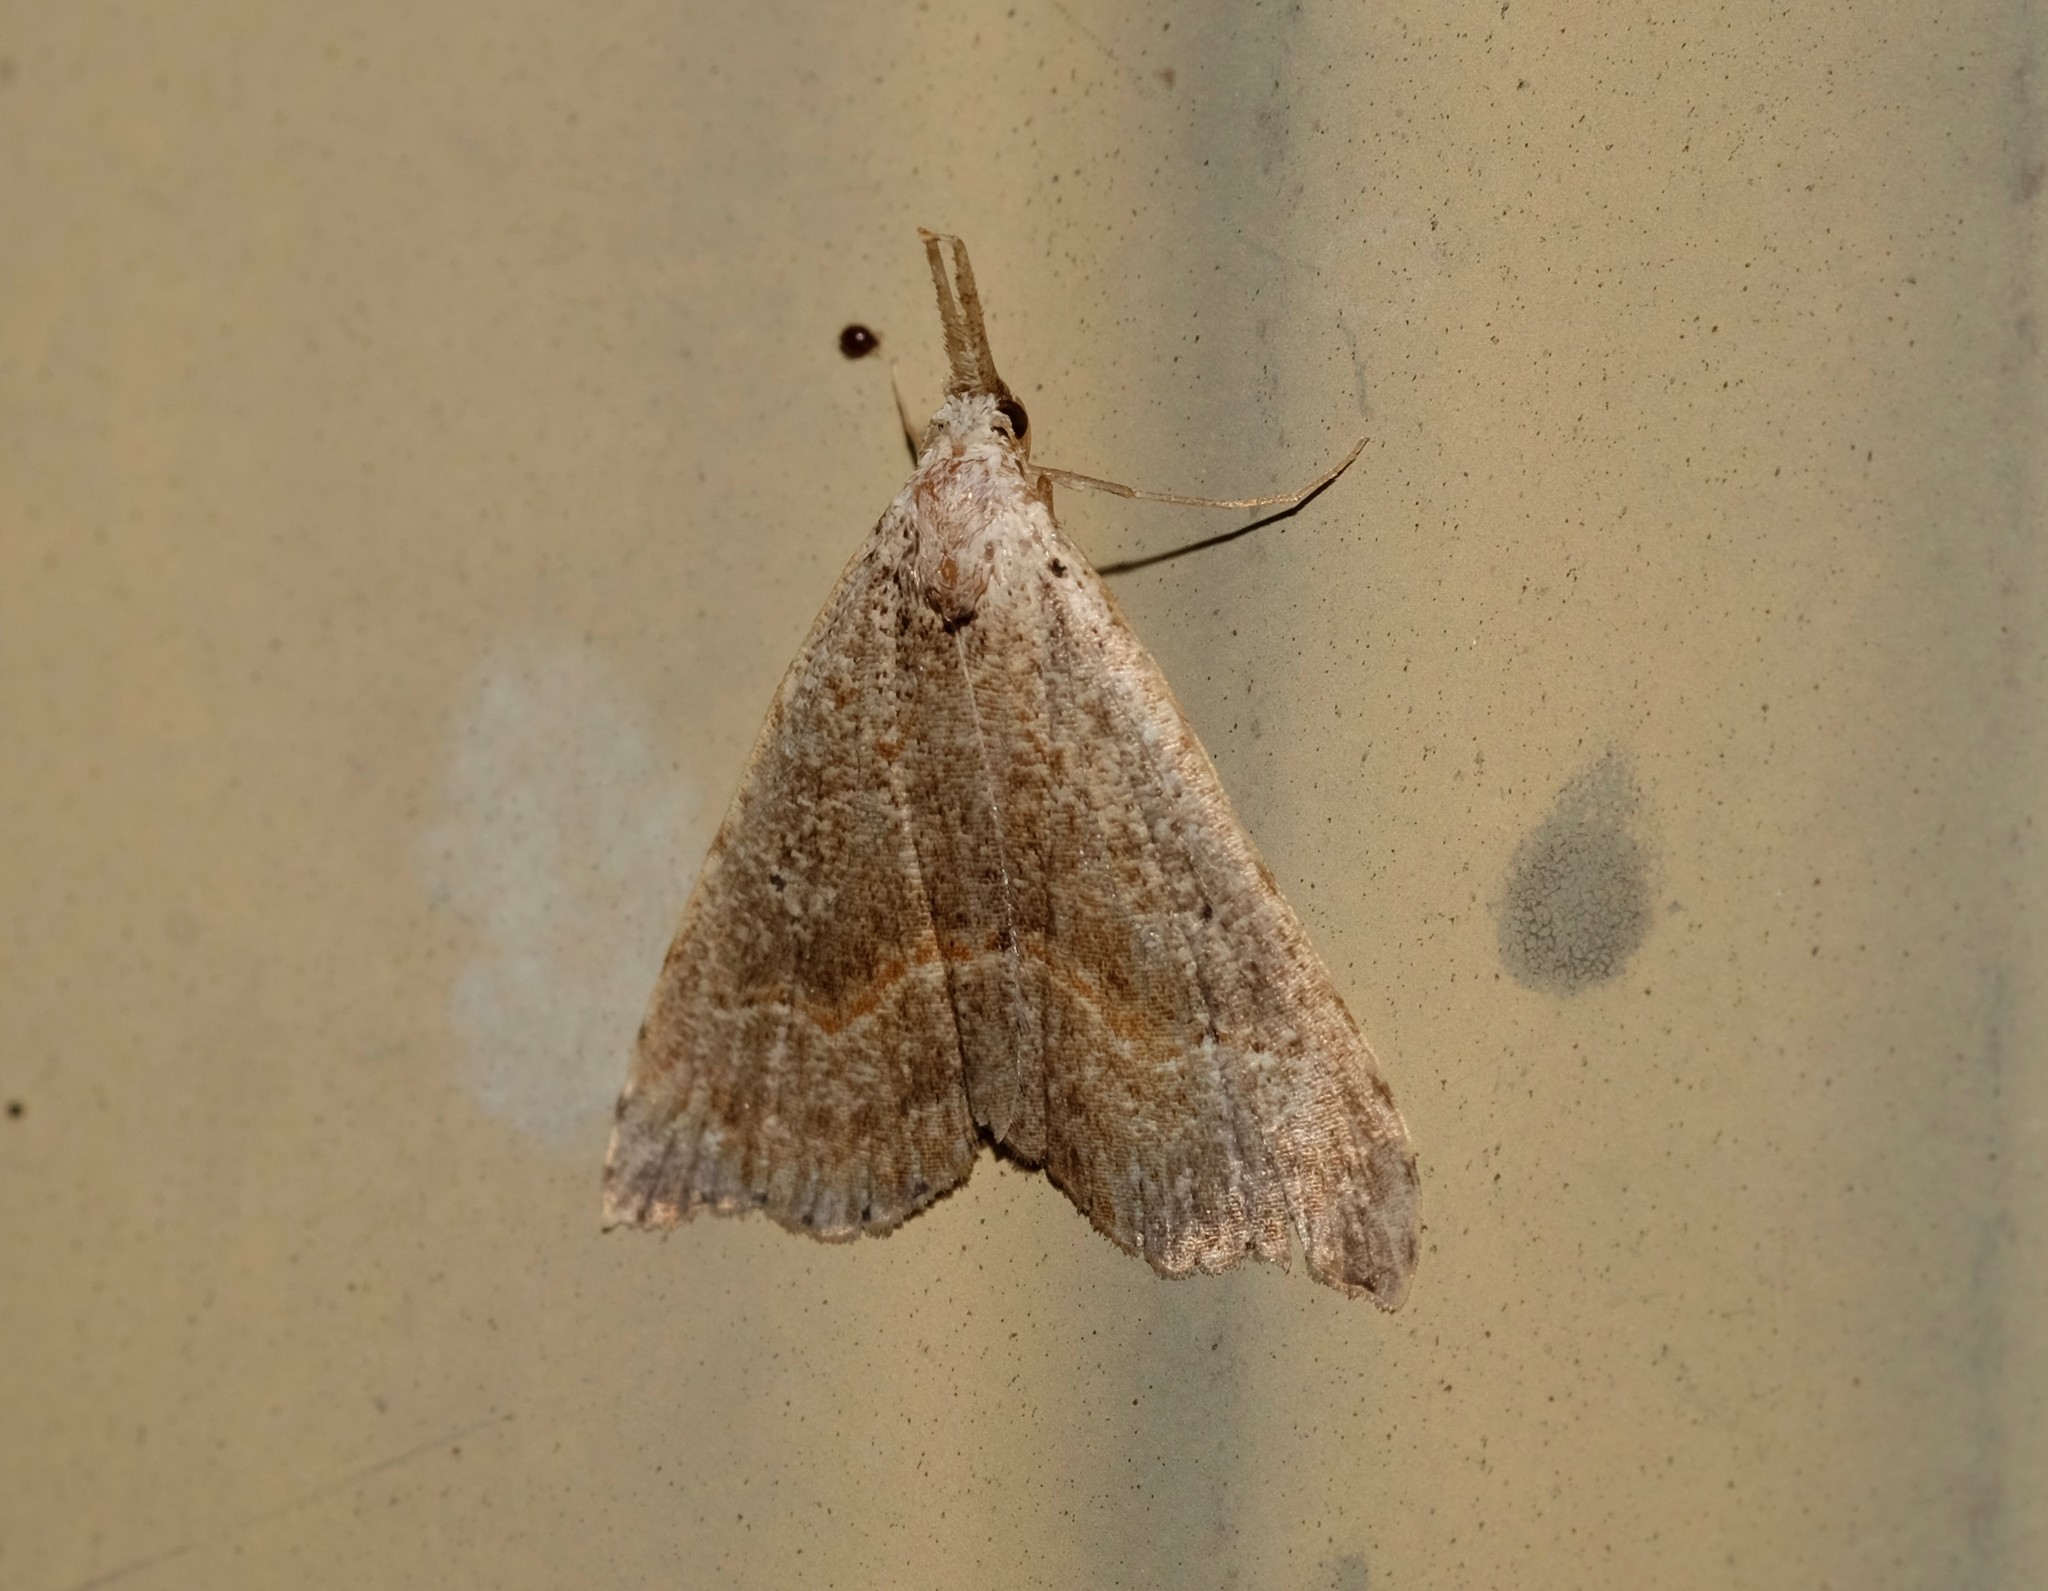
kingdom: Animalia
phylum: Arthropoda
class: Insecta
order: Lepidoptera
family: Erebidae
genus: Trigonistis
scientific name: Trigonistis asthenopa
